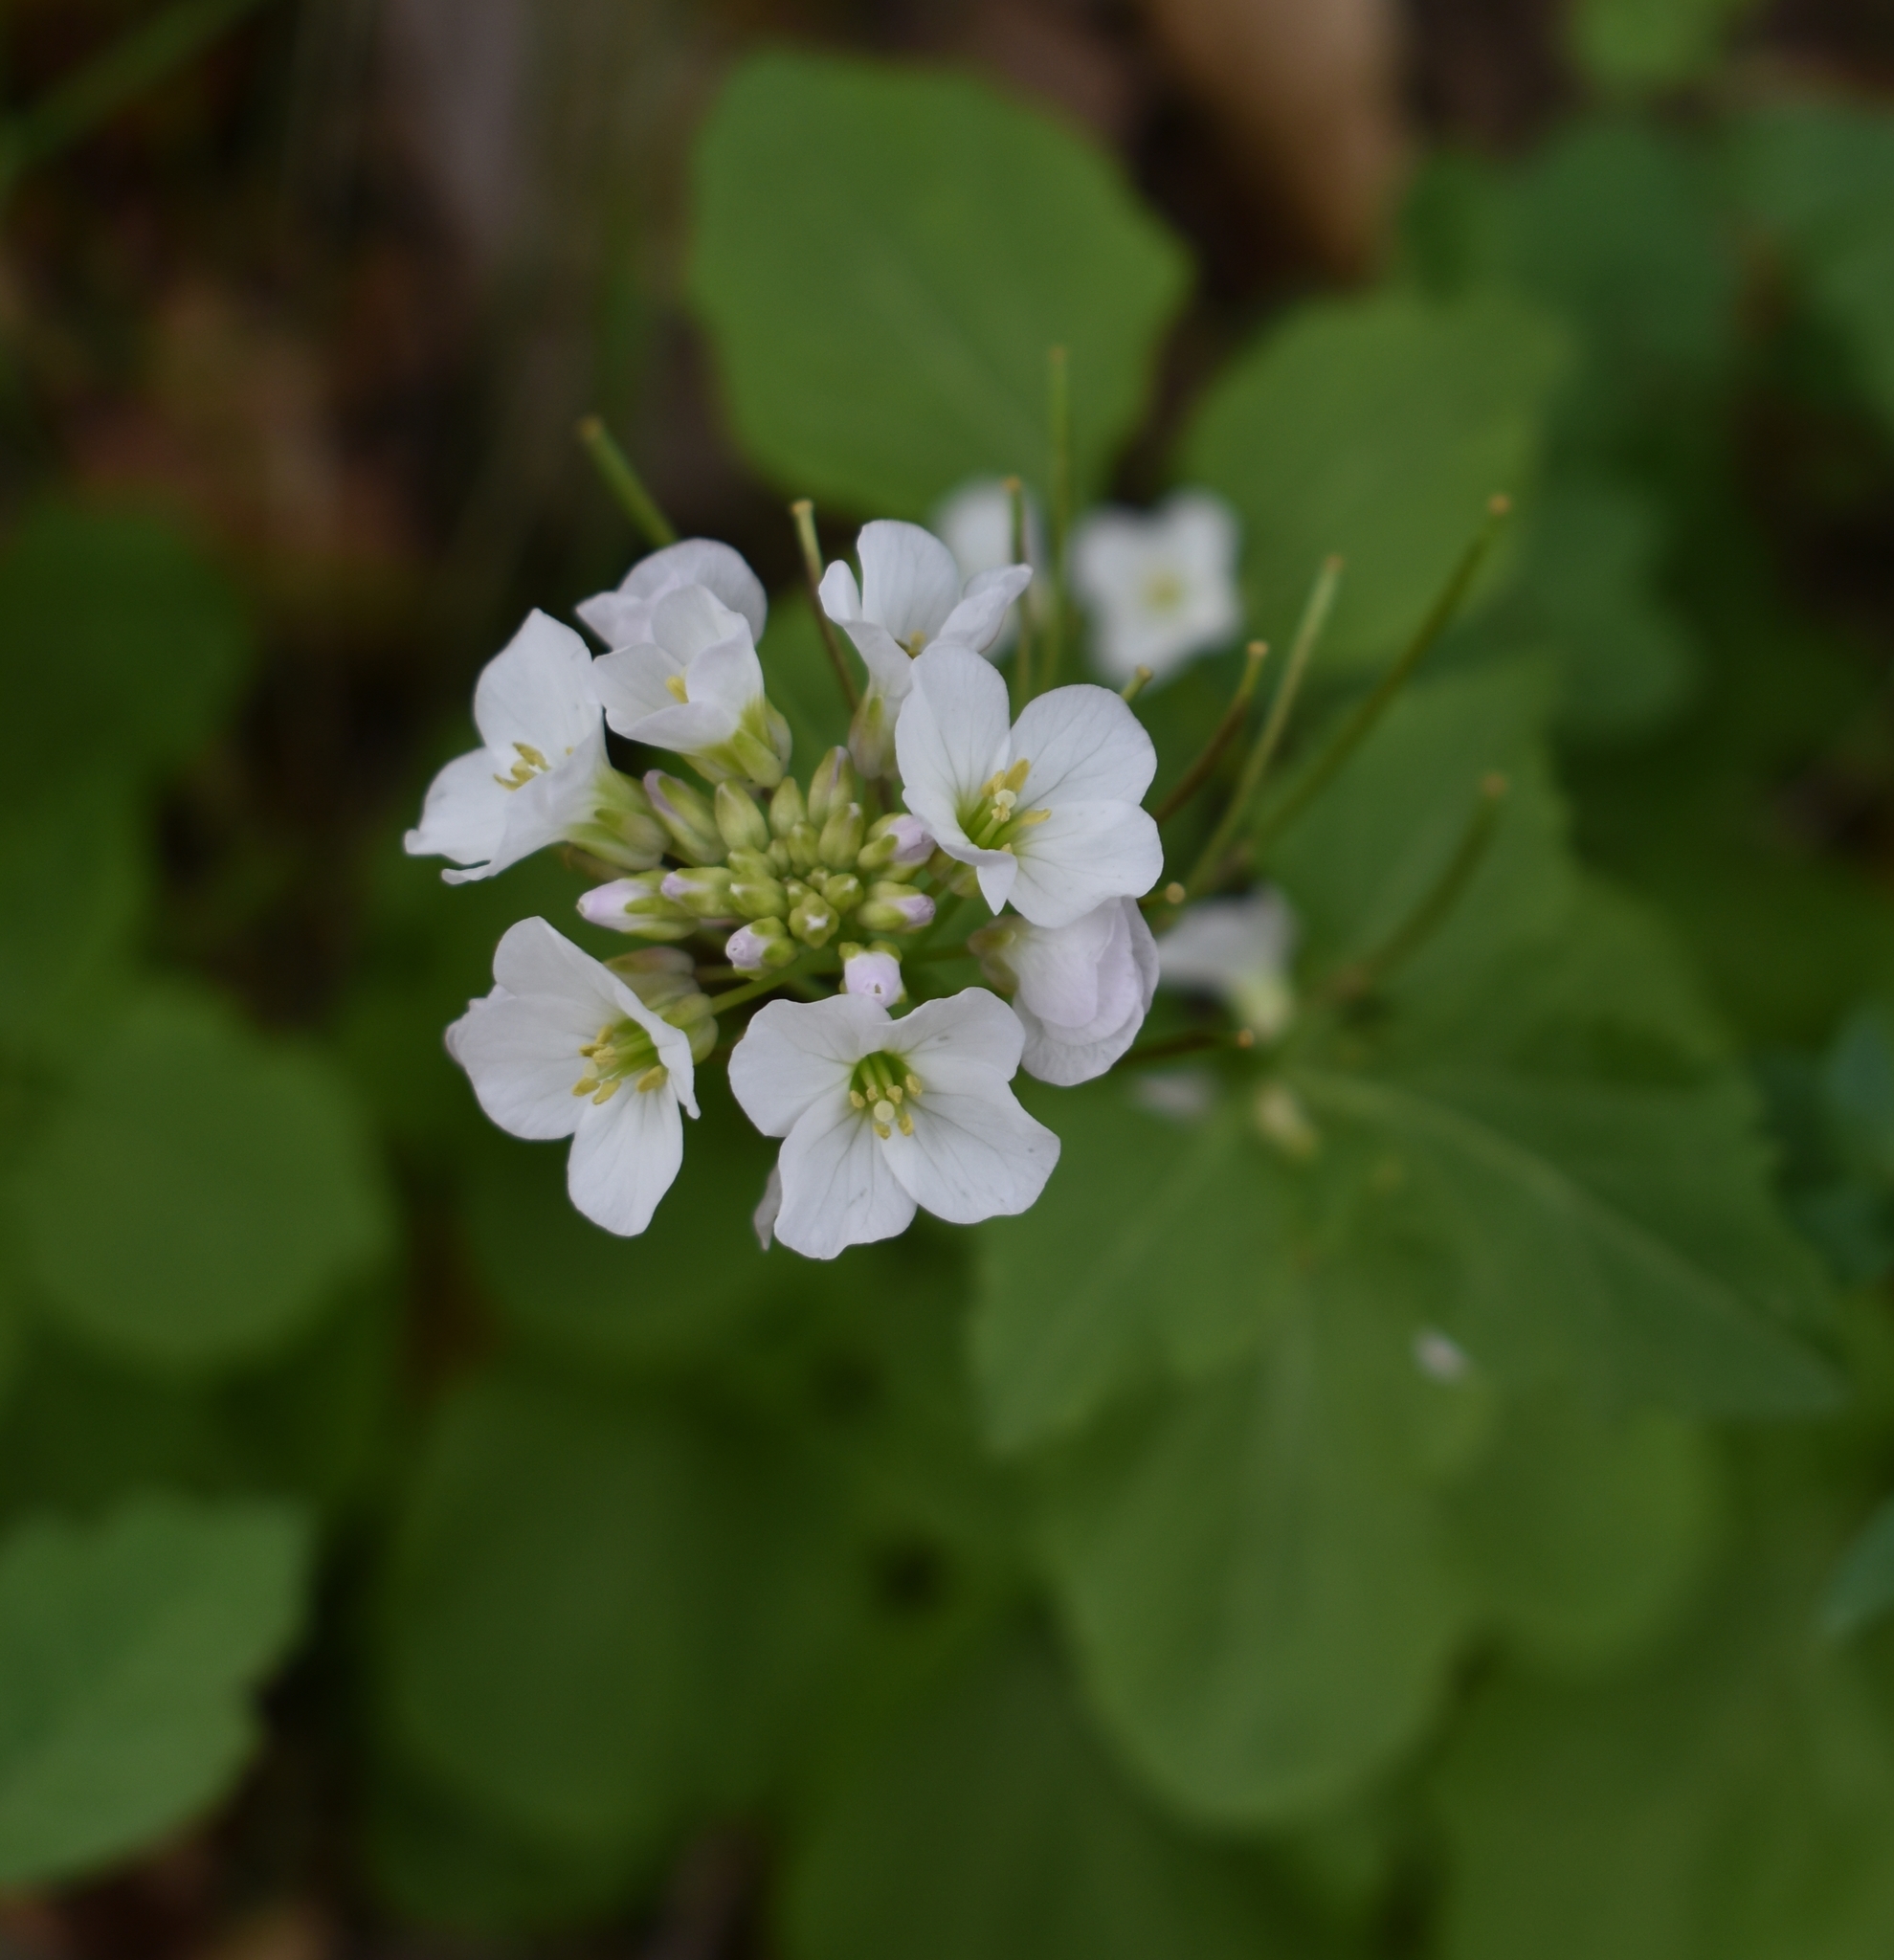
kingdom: Plantae
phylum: Tracheophyta
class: Magnoliopsida
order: Brassicales
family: Brassicaceae
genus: Cardamine
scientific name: Cardamine californica
